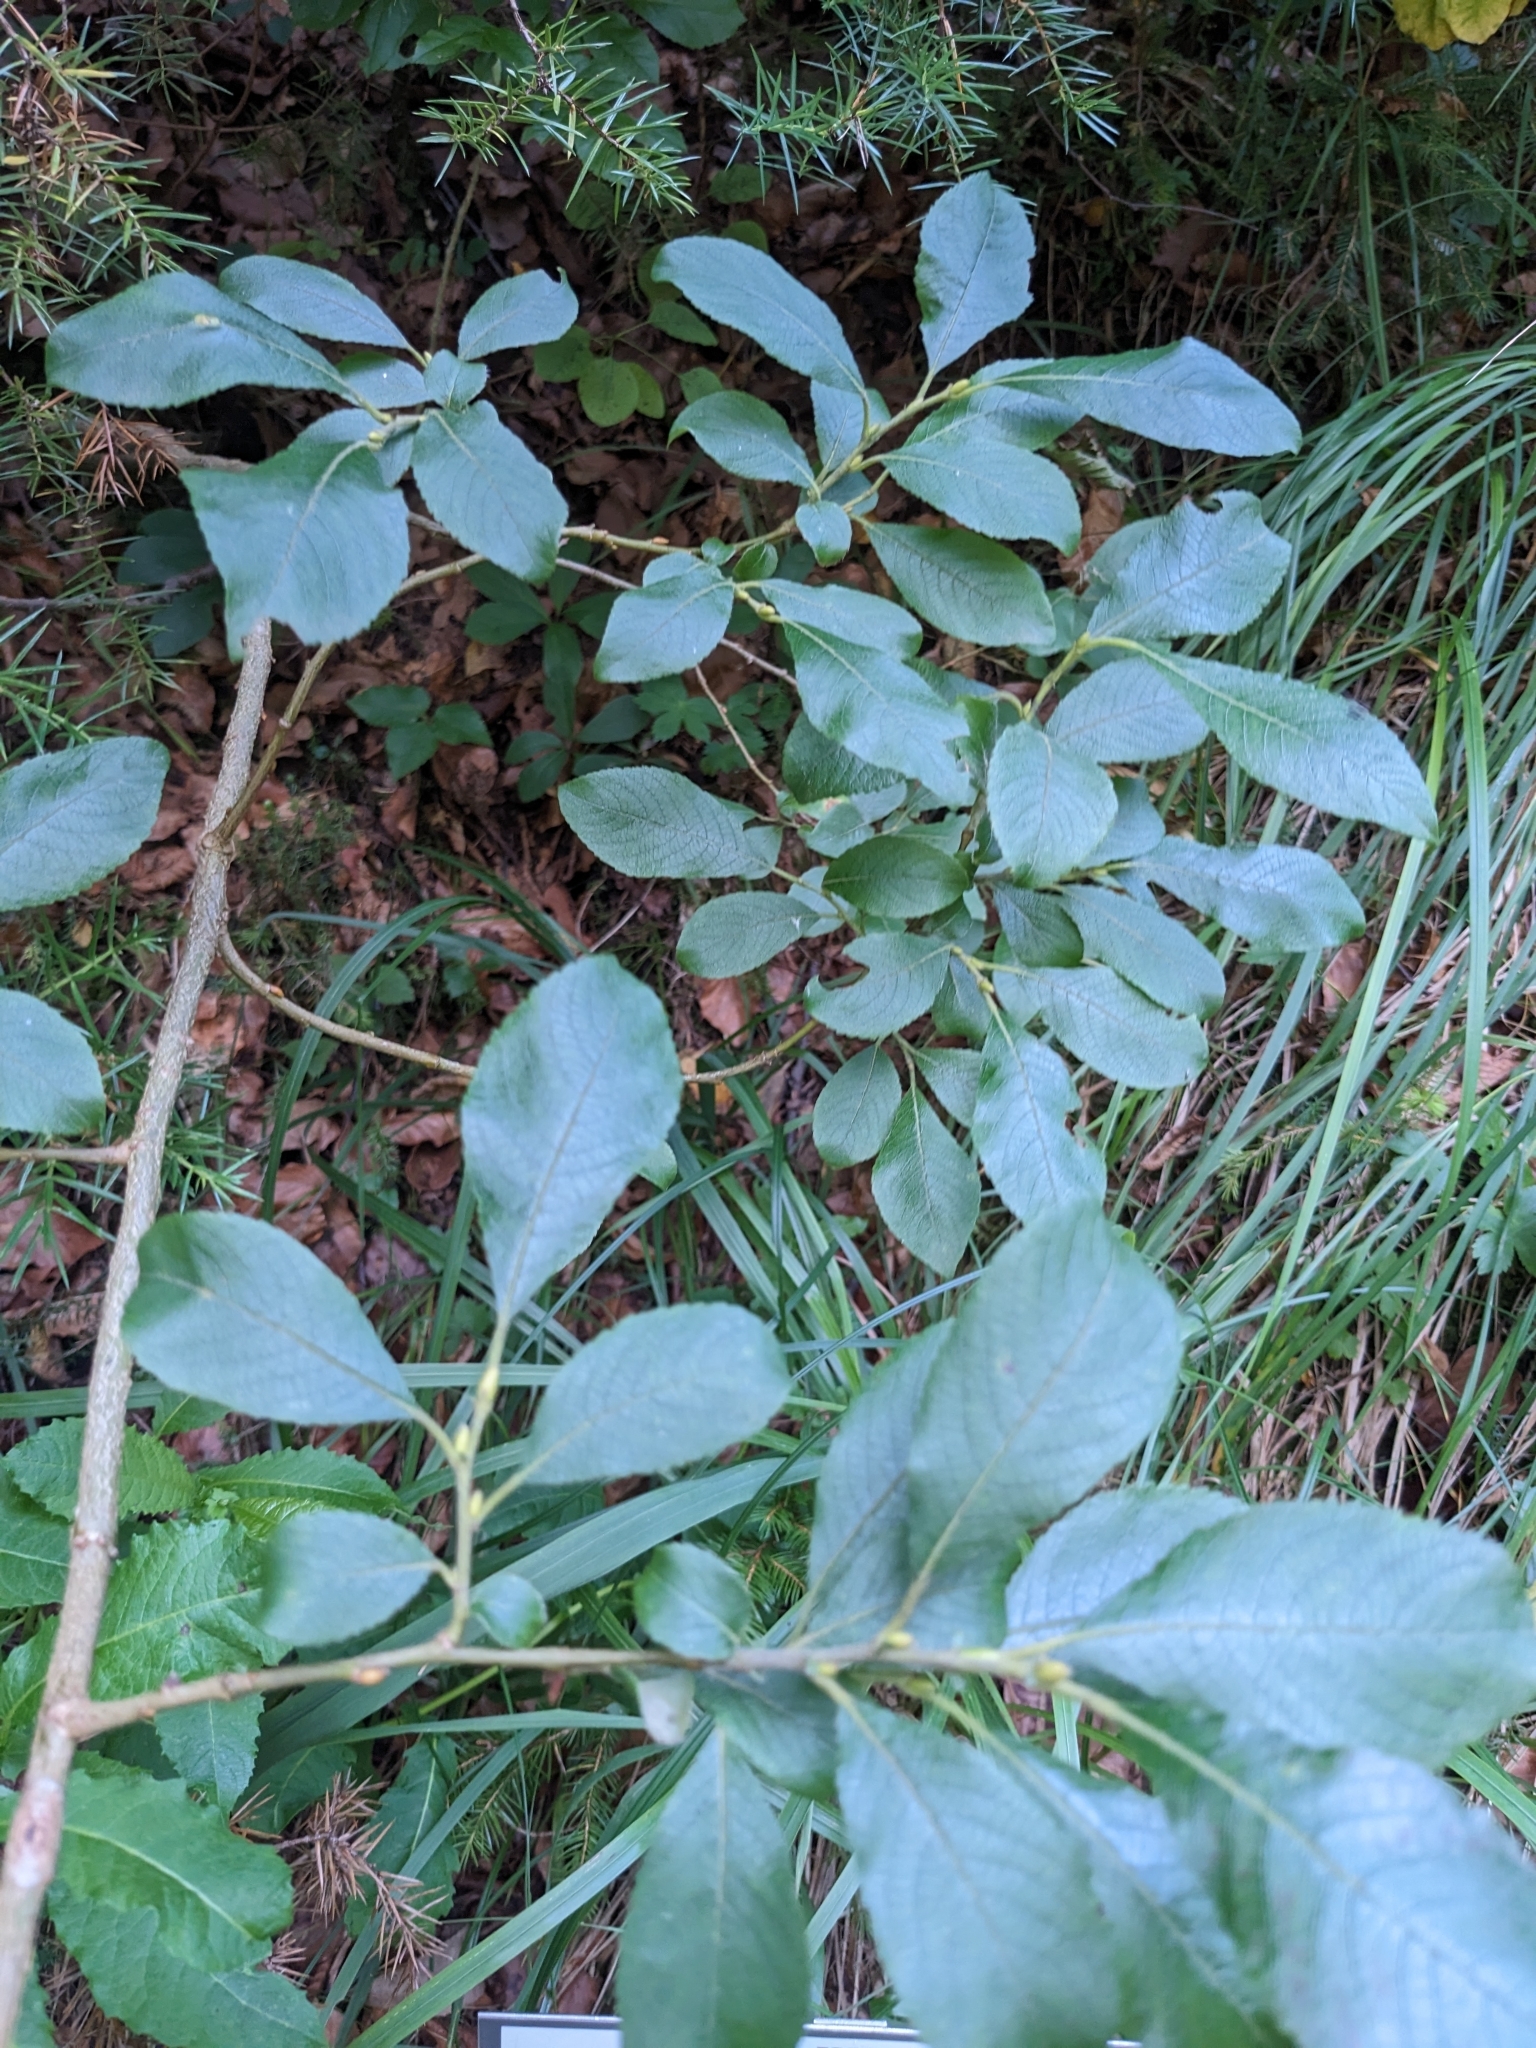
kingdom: Plantae
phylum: Tracheophyta
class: Magnoliopsida
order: Malpighiales
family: Salicaceae
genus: Salix
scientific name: Salix caprea
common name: Goat willow
